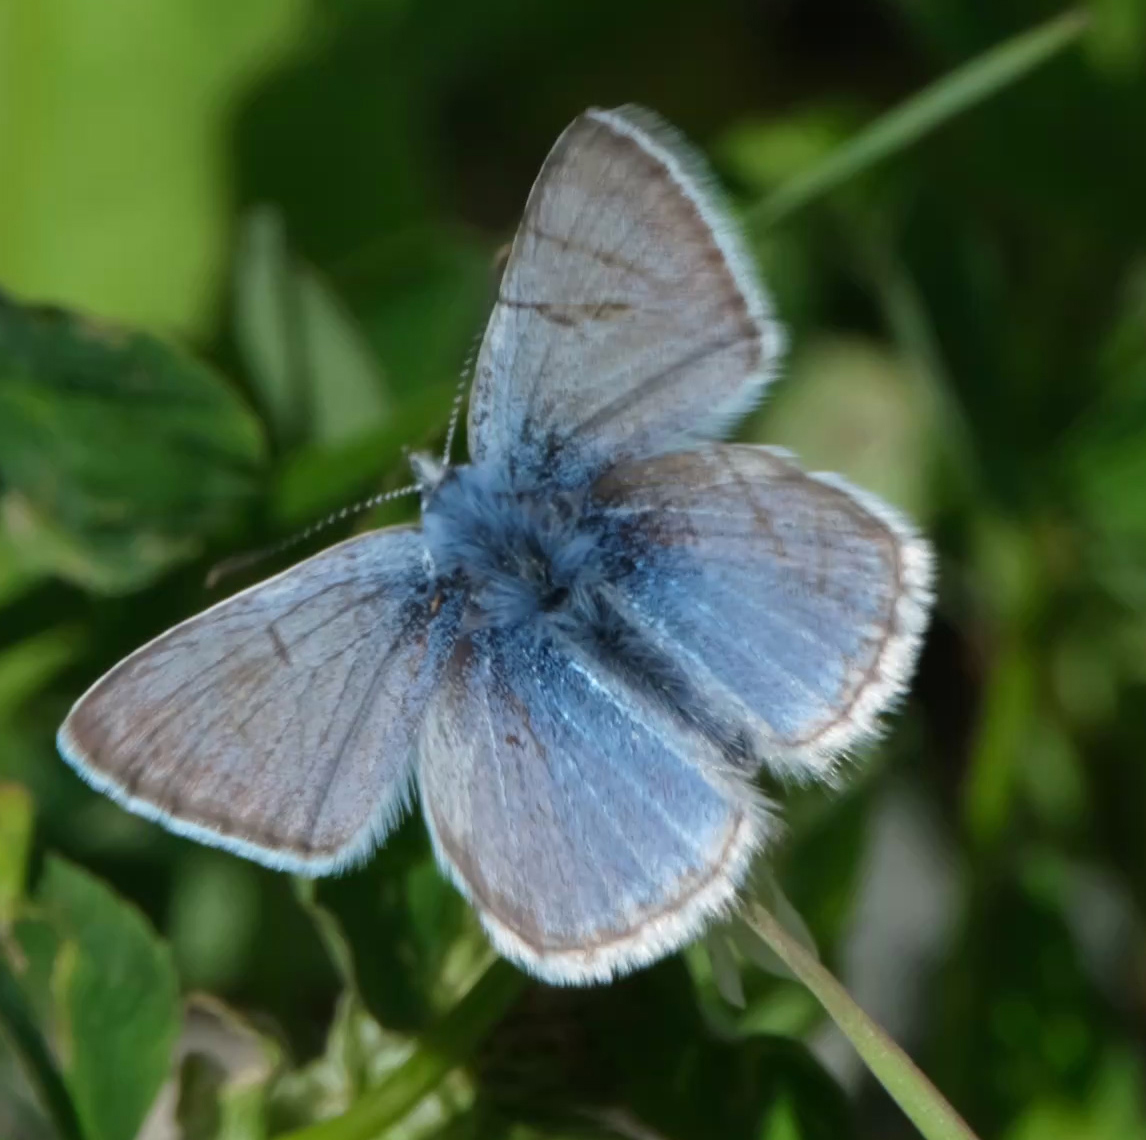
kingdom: Animalia
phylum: Arthropoda
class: Insecta
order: Lepidoptera
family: Lycaenidae
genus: Glaucopsyche
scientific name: Glaucopsyche lygdamus
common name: Silvery blue
